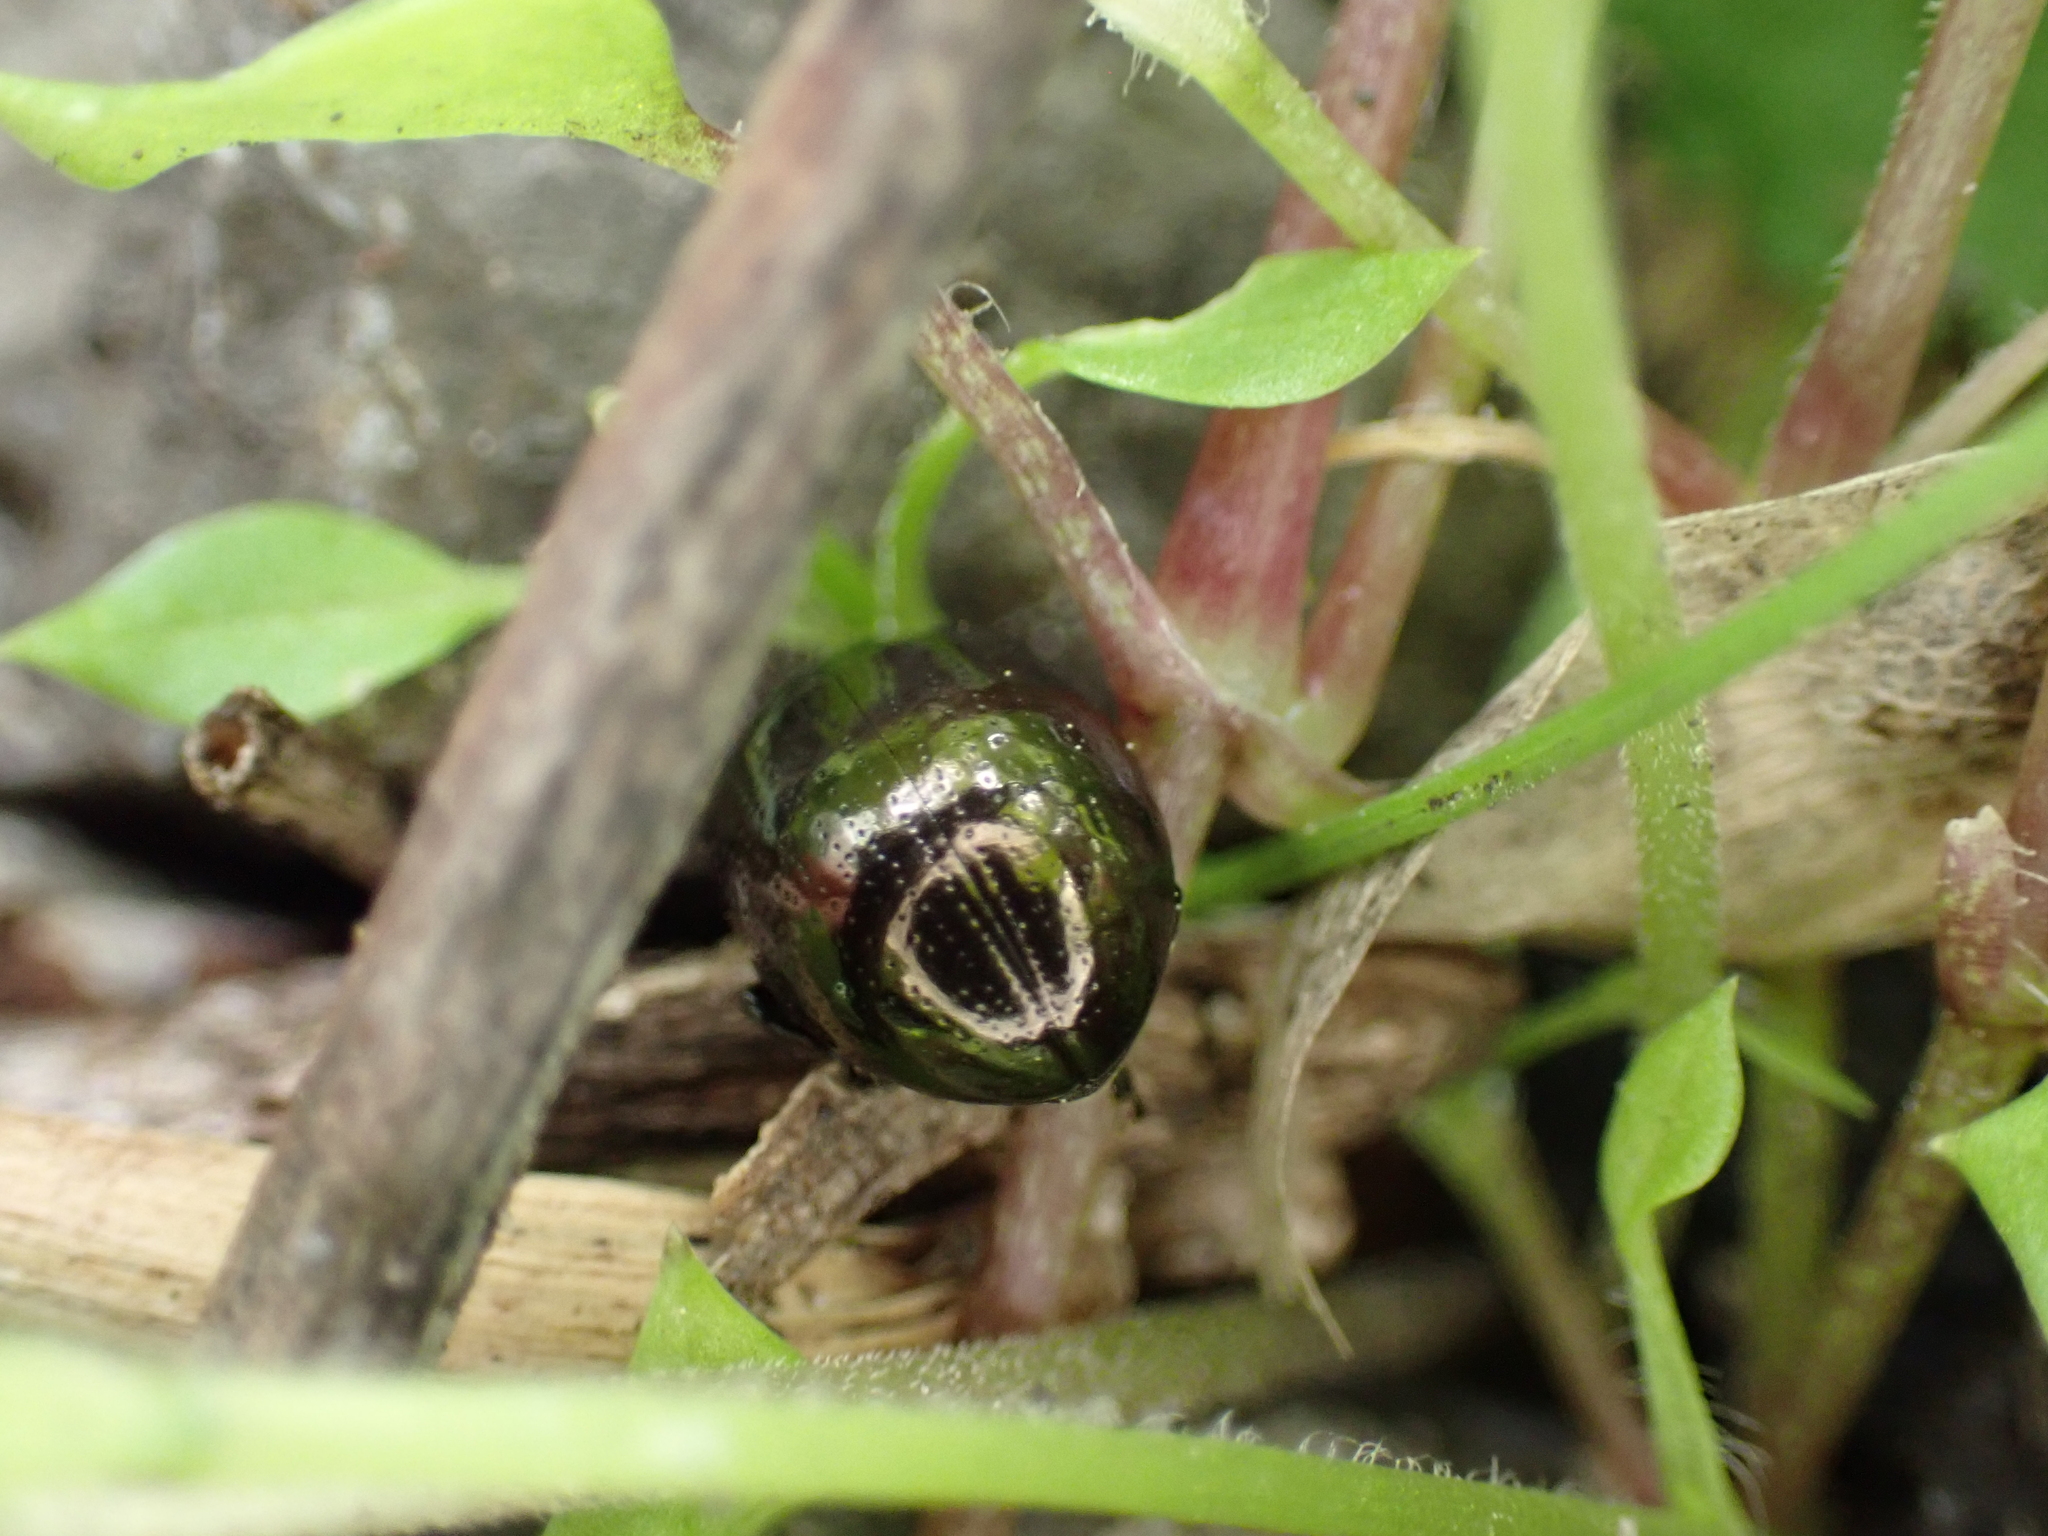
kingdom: Animalia
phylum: Arthropoda
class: Insecta
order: Coleoptera
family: Chrysomelidae
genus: Chrysolina
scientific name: Chrysolina oricalcia
